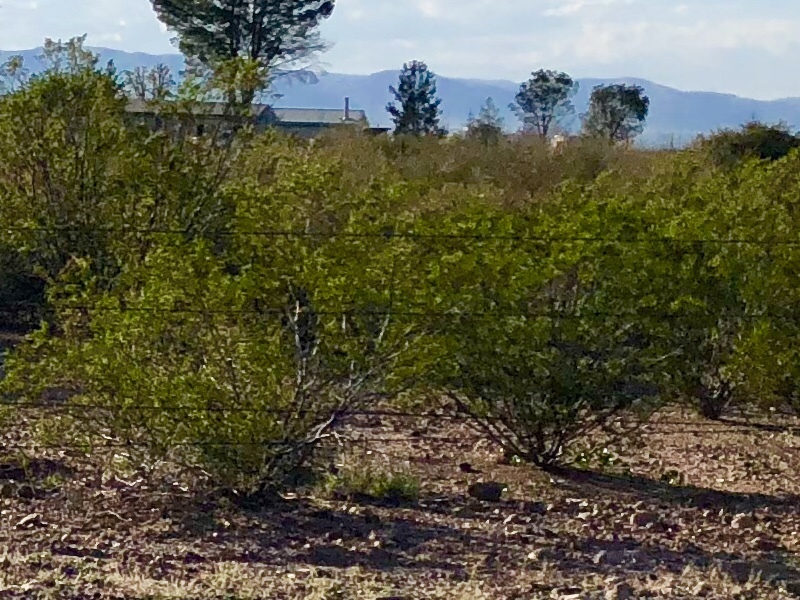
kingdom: Plantae
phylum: Tracheophyta
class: Magnoliopsida
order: Zygophyllales
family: Zygophyllaceae
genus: Larrea
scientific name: Larrea tridentata
